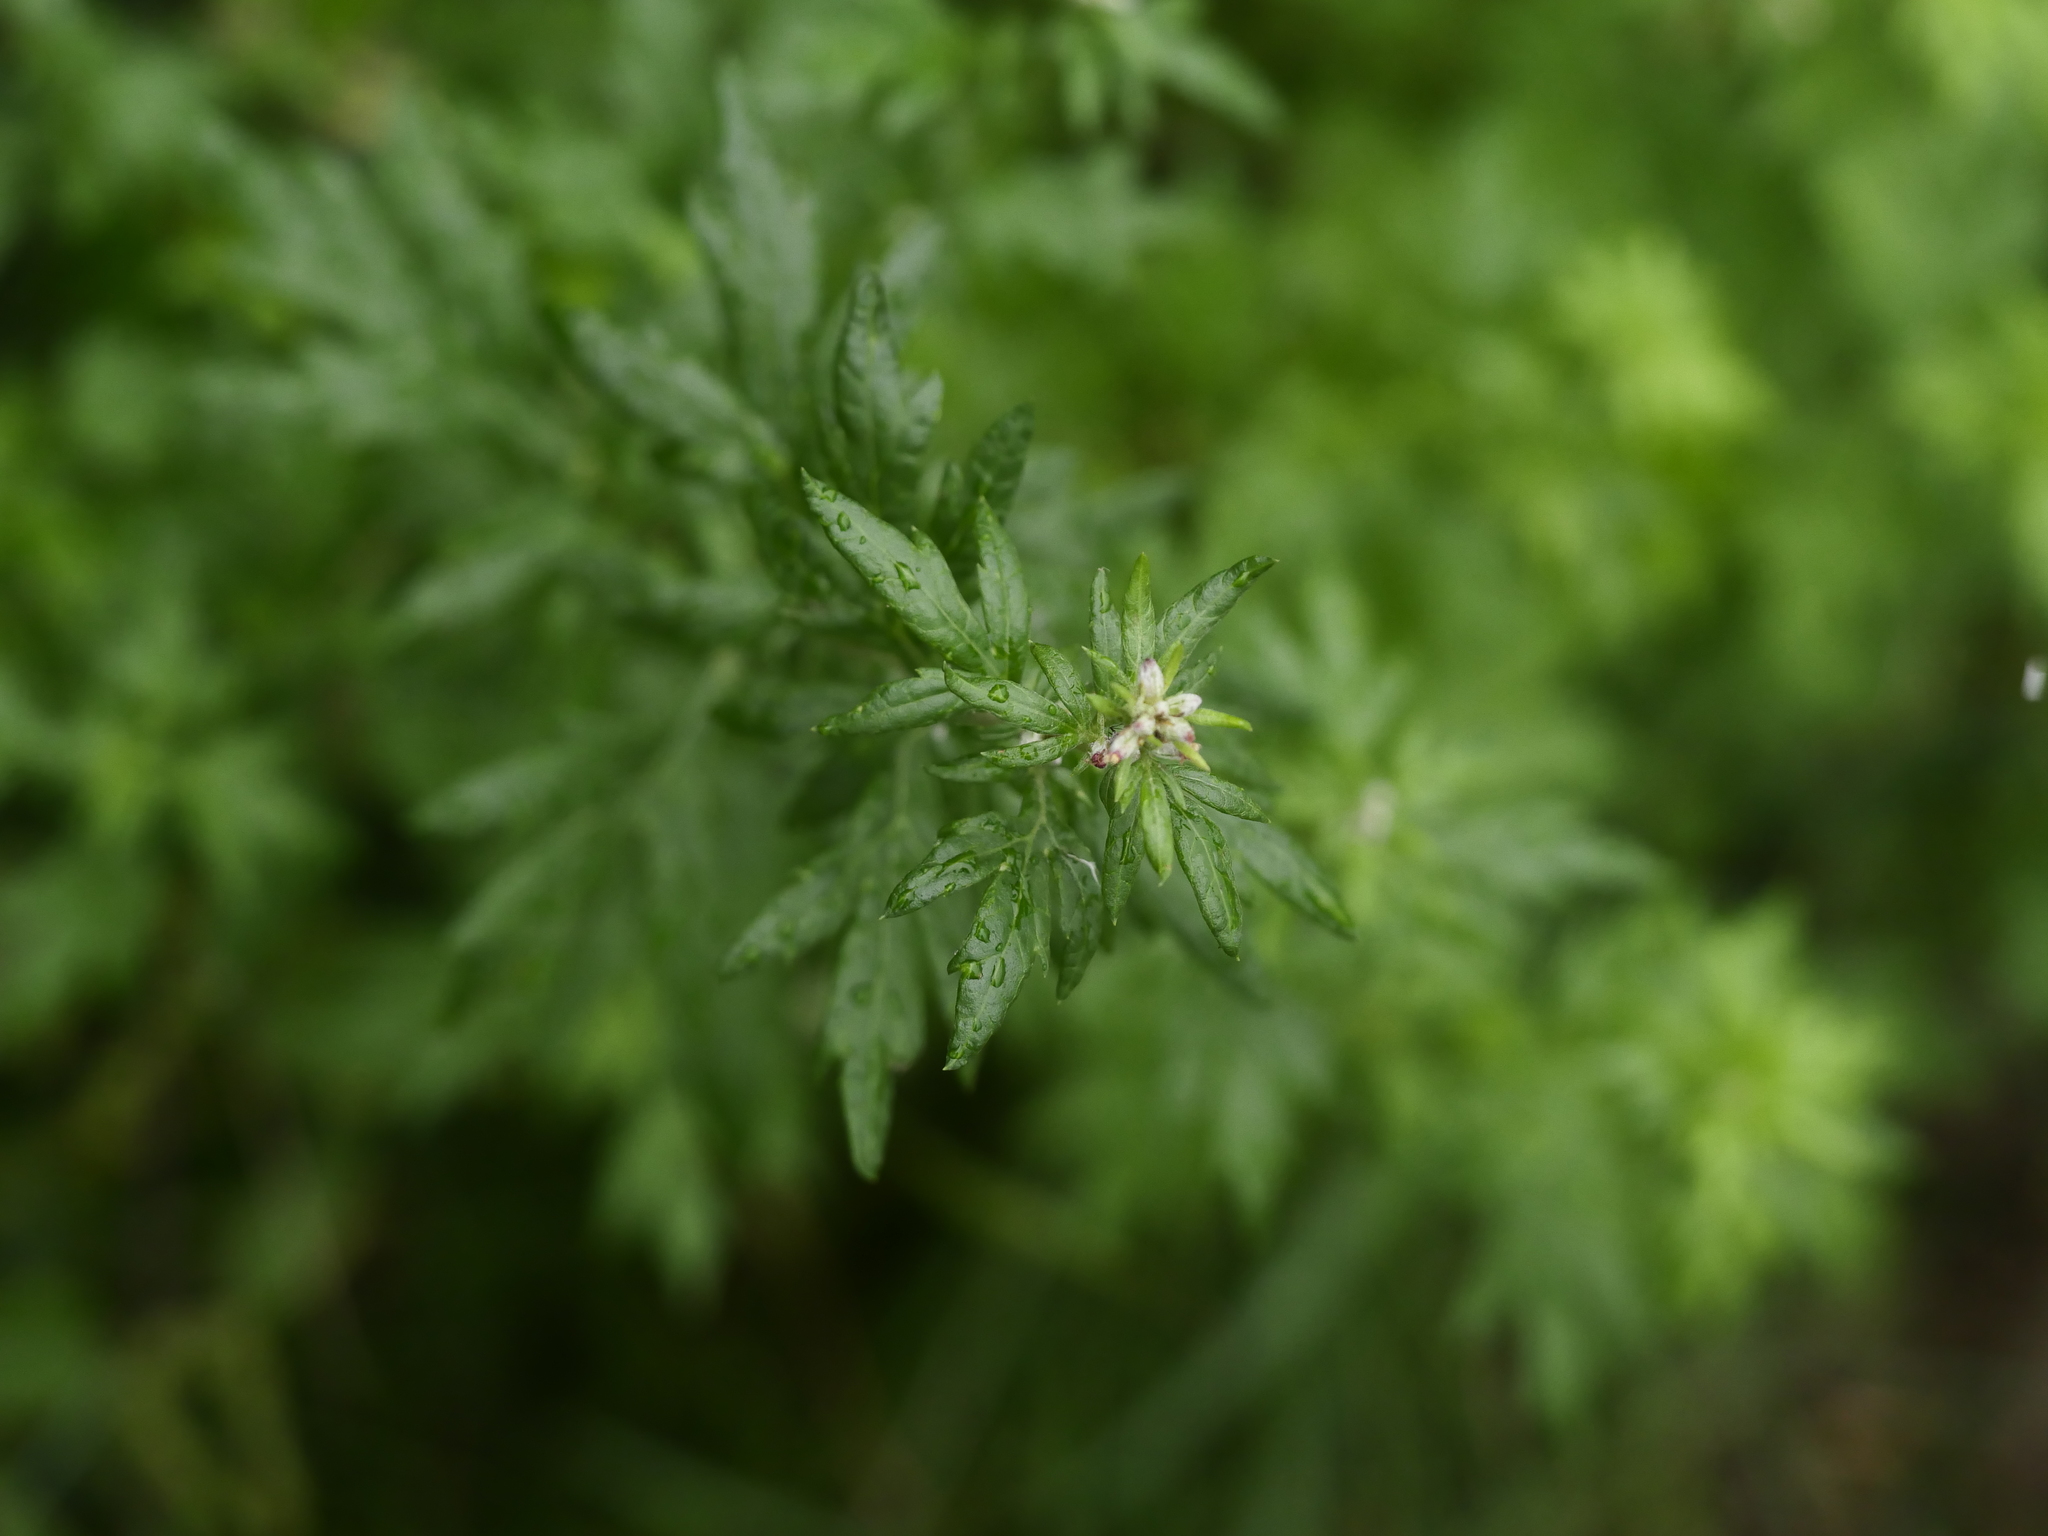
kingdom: Plantae
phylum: Tracheophyta
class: Magnoliopsida
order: Asterales
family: Asteraceae
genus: Artemisia
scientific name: Artemisia vulgaris
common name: Mugwort
